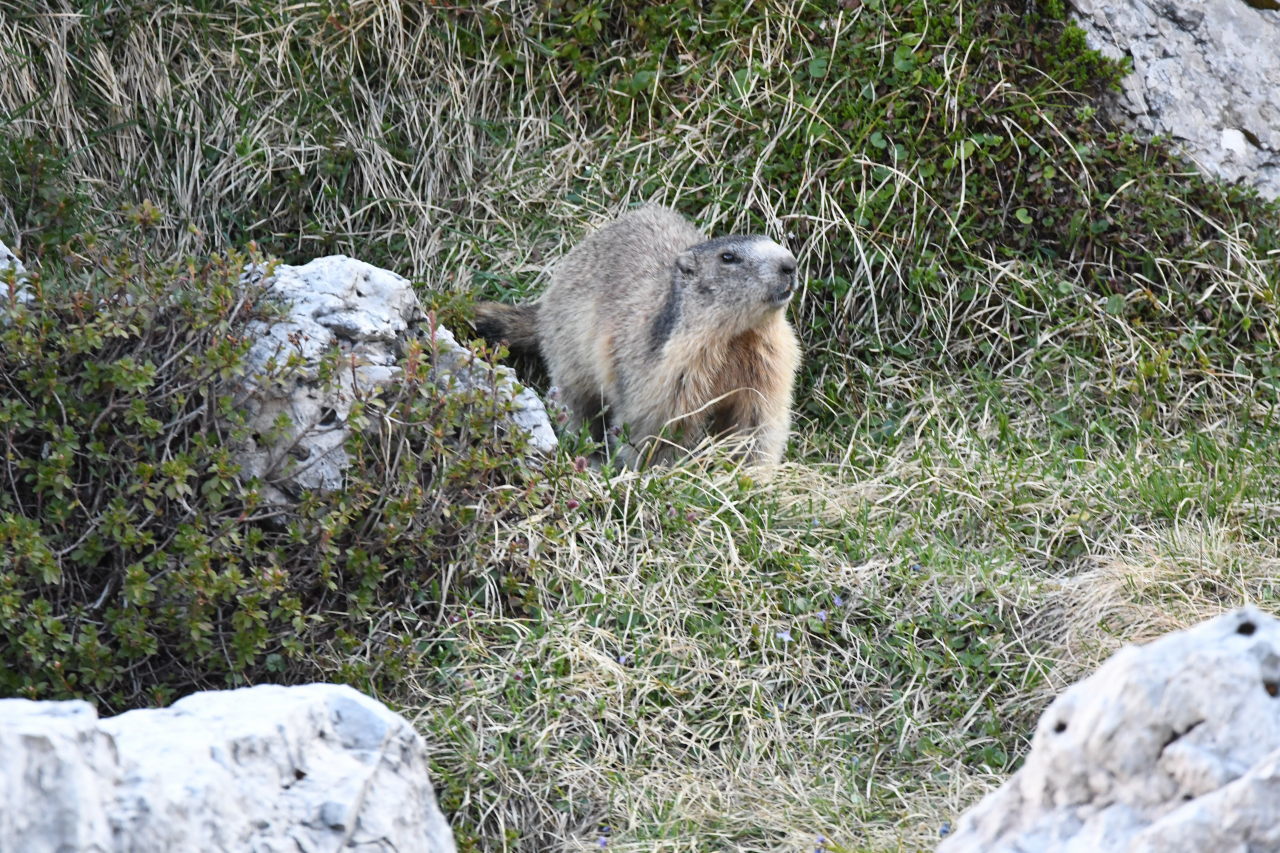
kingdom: Animalia
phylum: Chordata
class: Mammalia
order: Rodentia
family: Sciuridae
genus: Marmota
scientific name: Marmota marmota
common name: Alpine marmot
